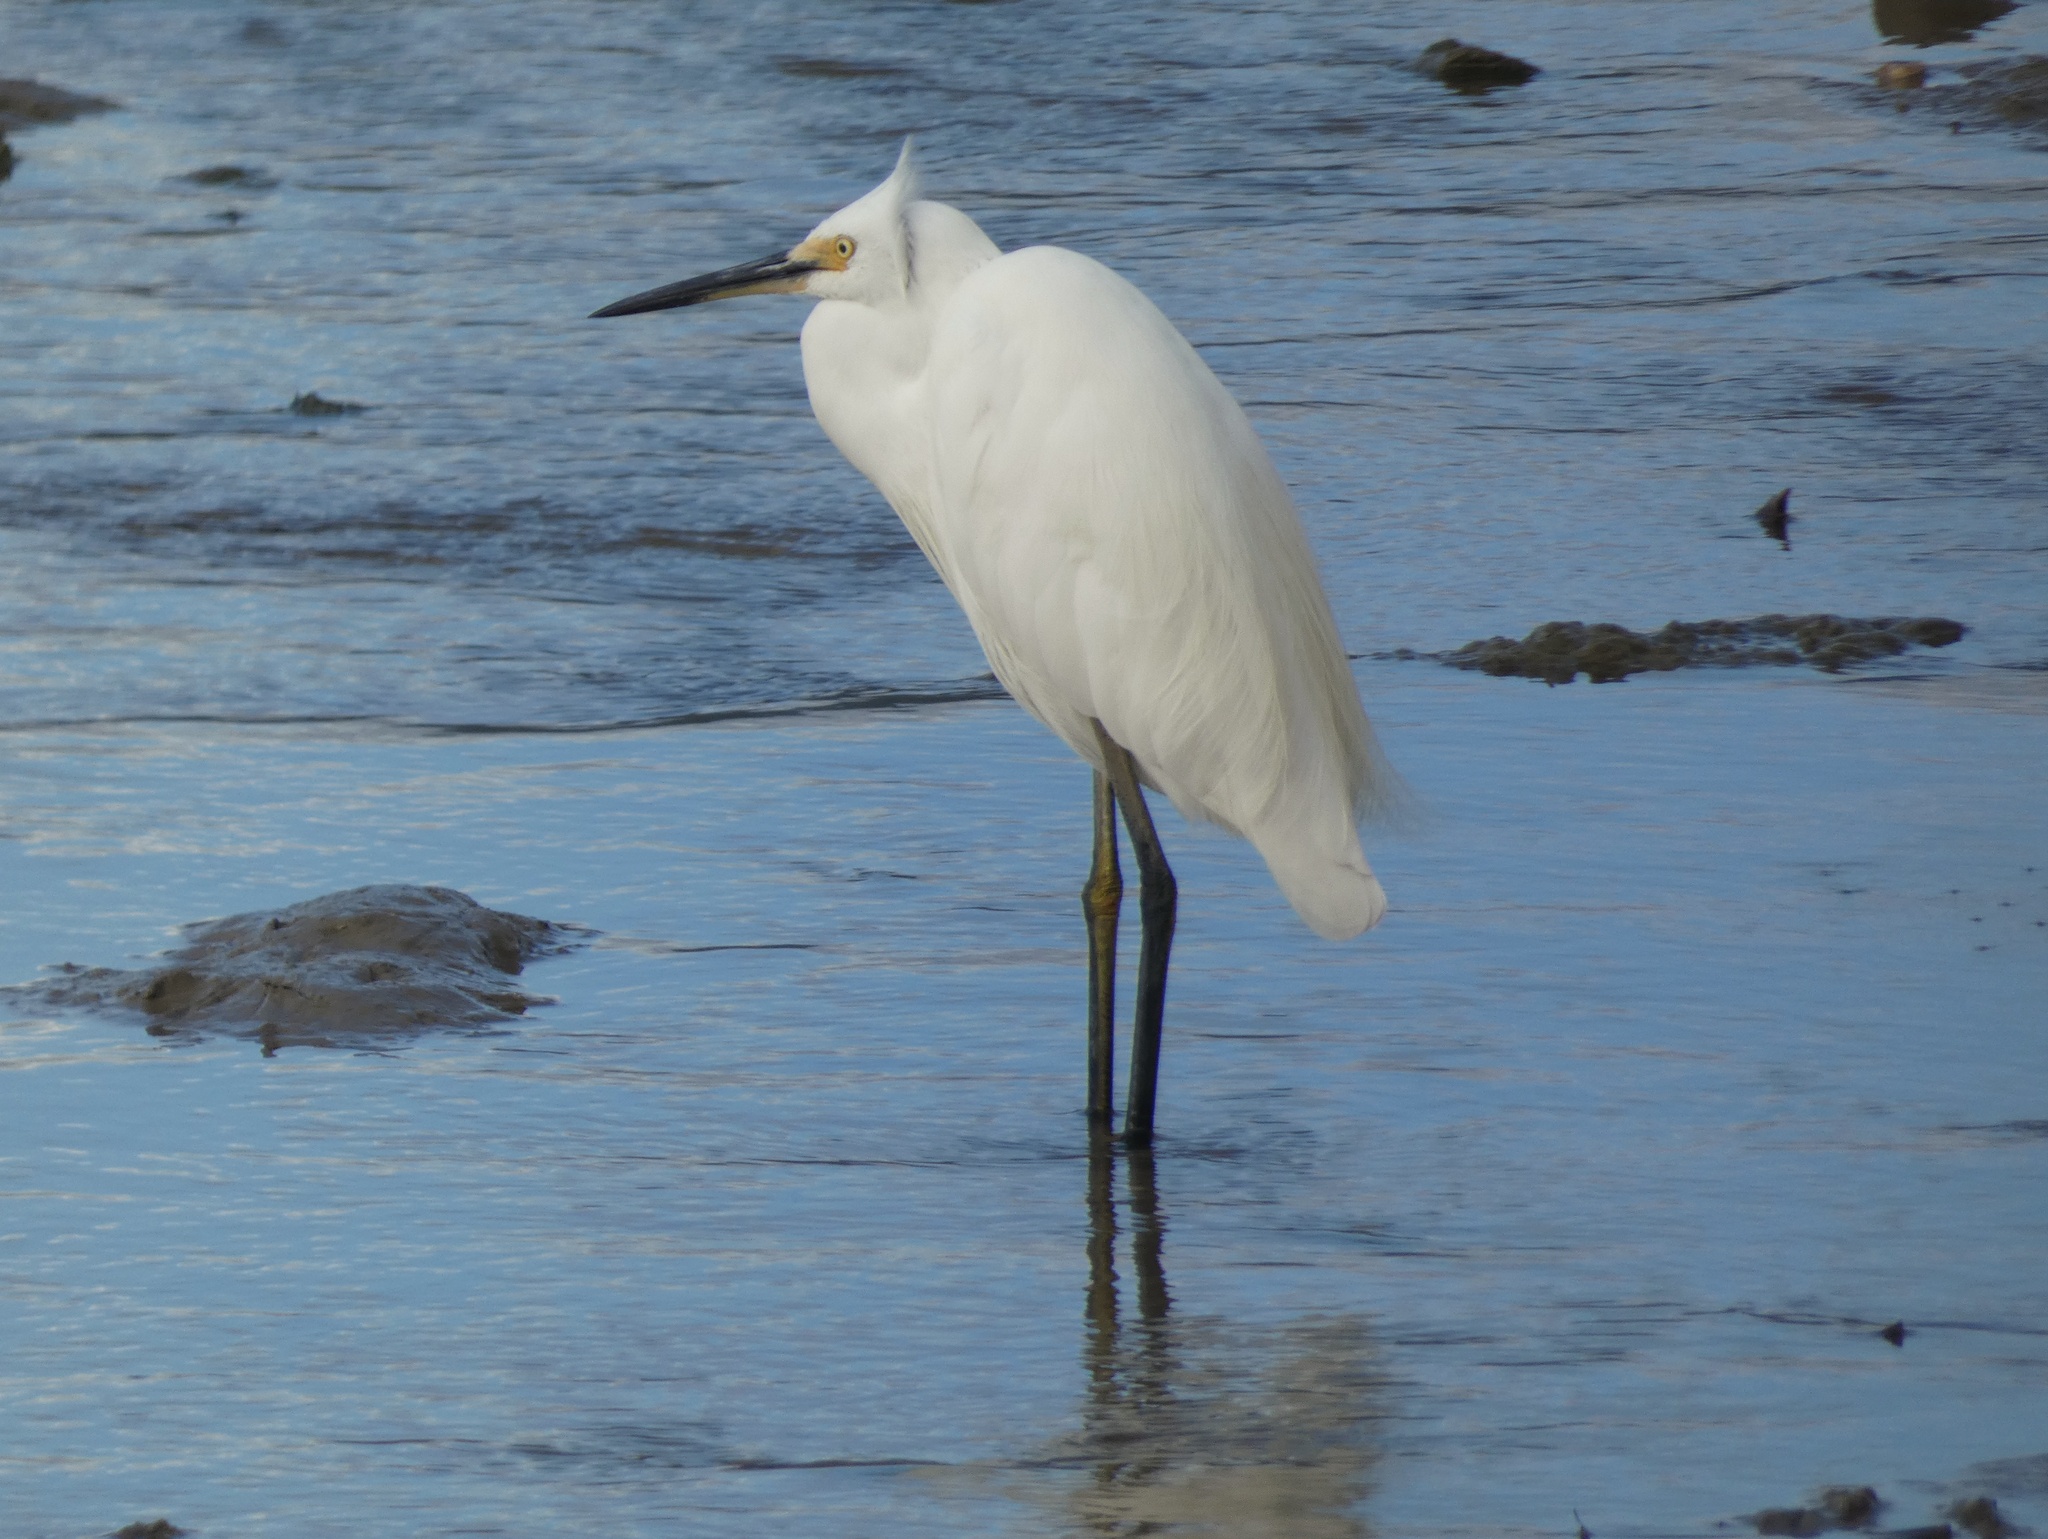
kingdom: Animalia
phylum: Chordata
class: Aves
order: Pelecaniformes
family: Ardeidae
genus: Egretta
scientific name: Egretta garzetta
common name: Little egret
